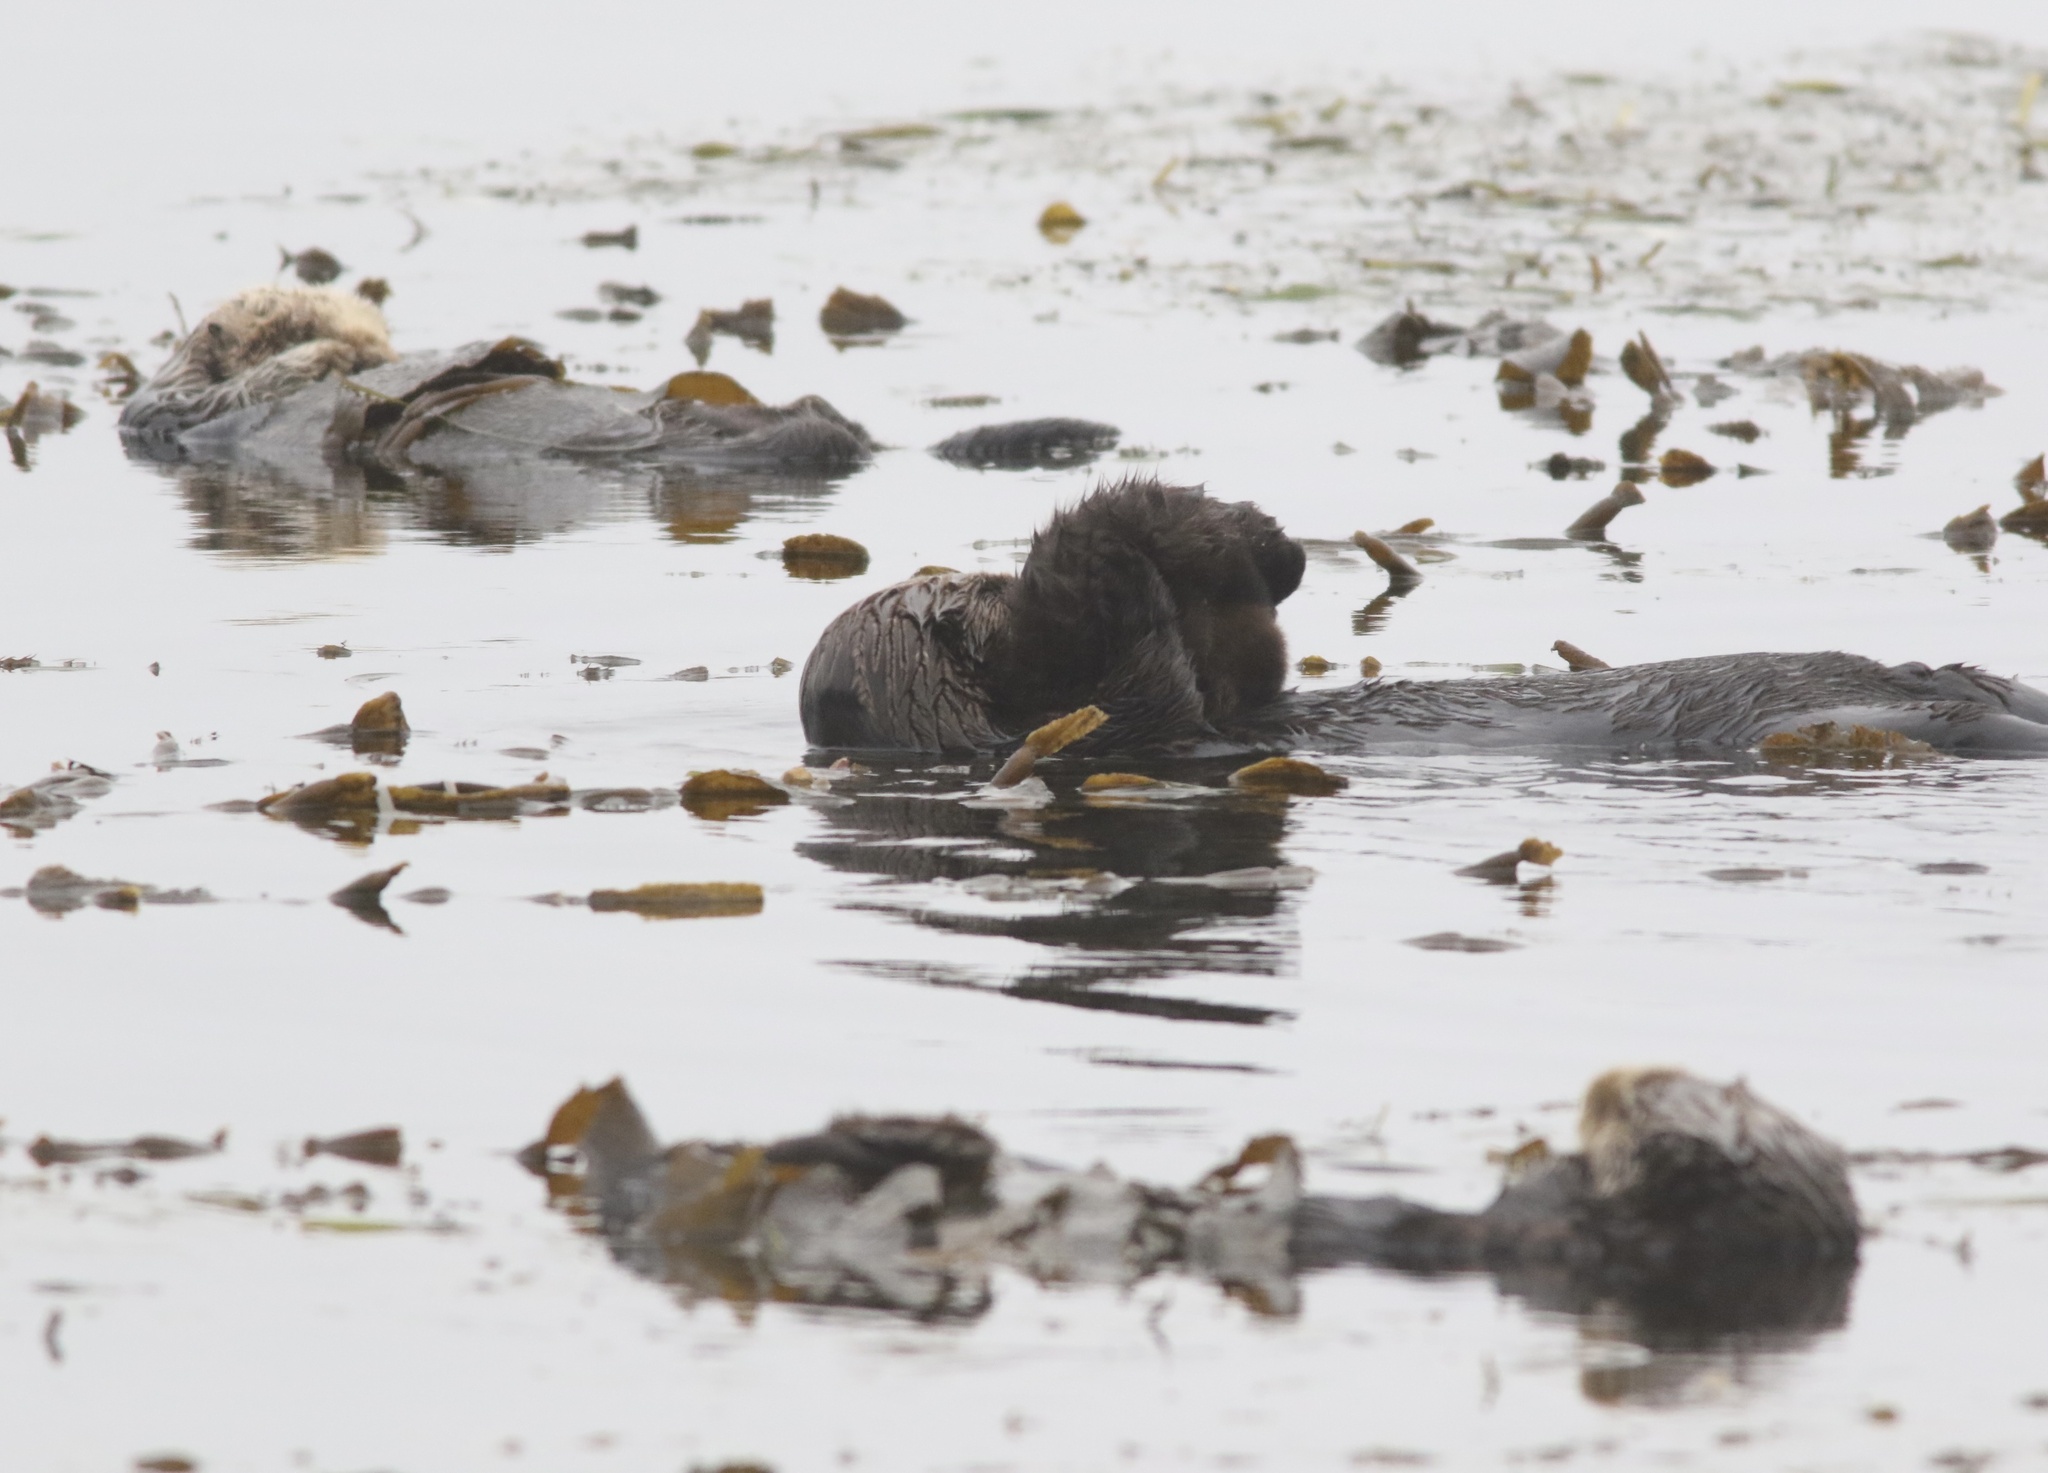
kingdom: Animalia
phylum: Chordata
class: Mammalia
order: Carnivora
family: Mustelidae
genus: Enhydra
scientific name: Enhydra lutris
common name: Sea otter
